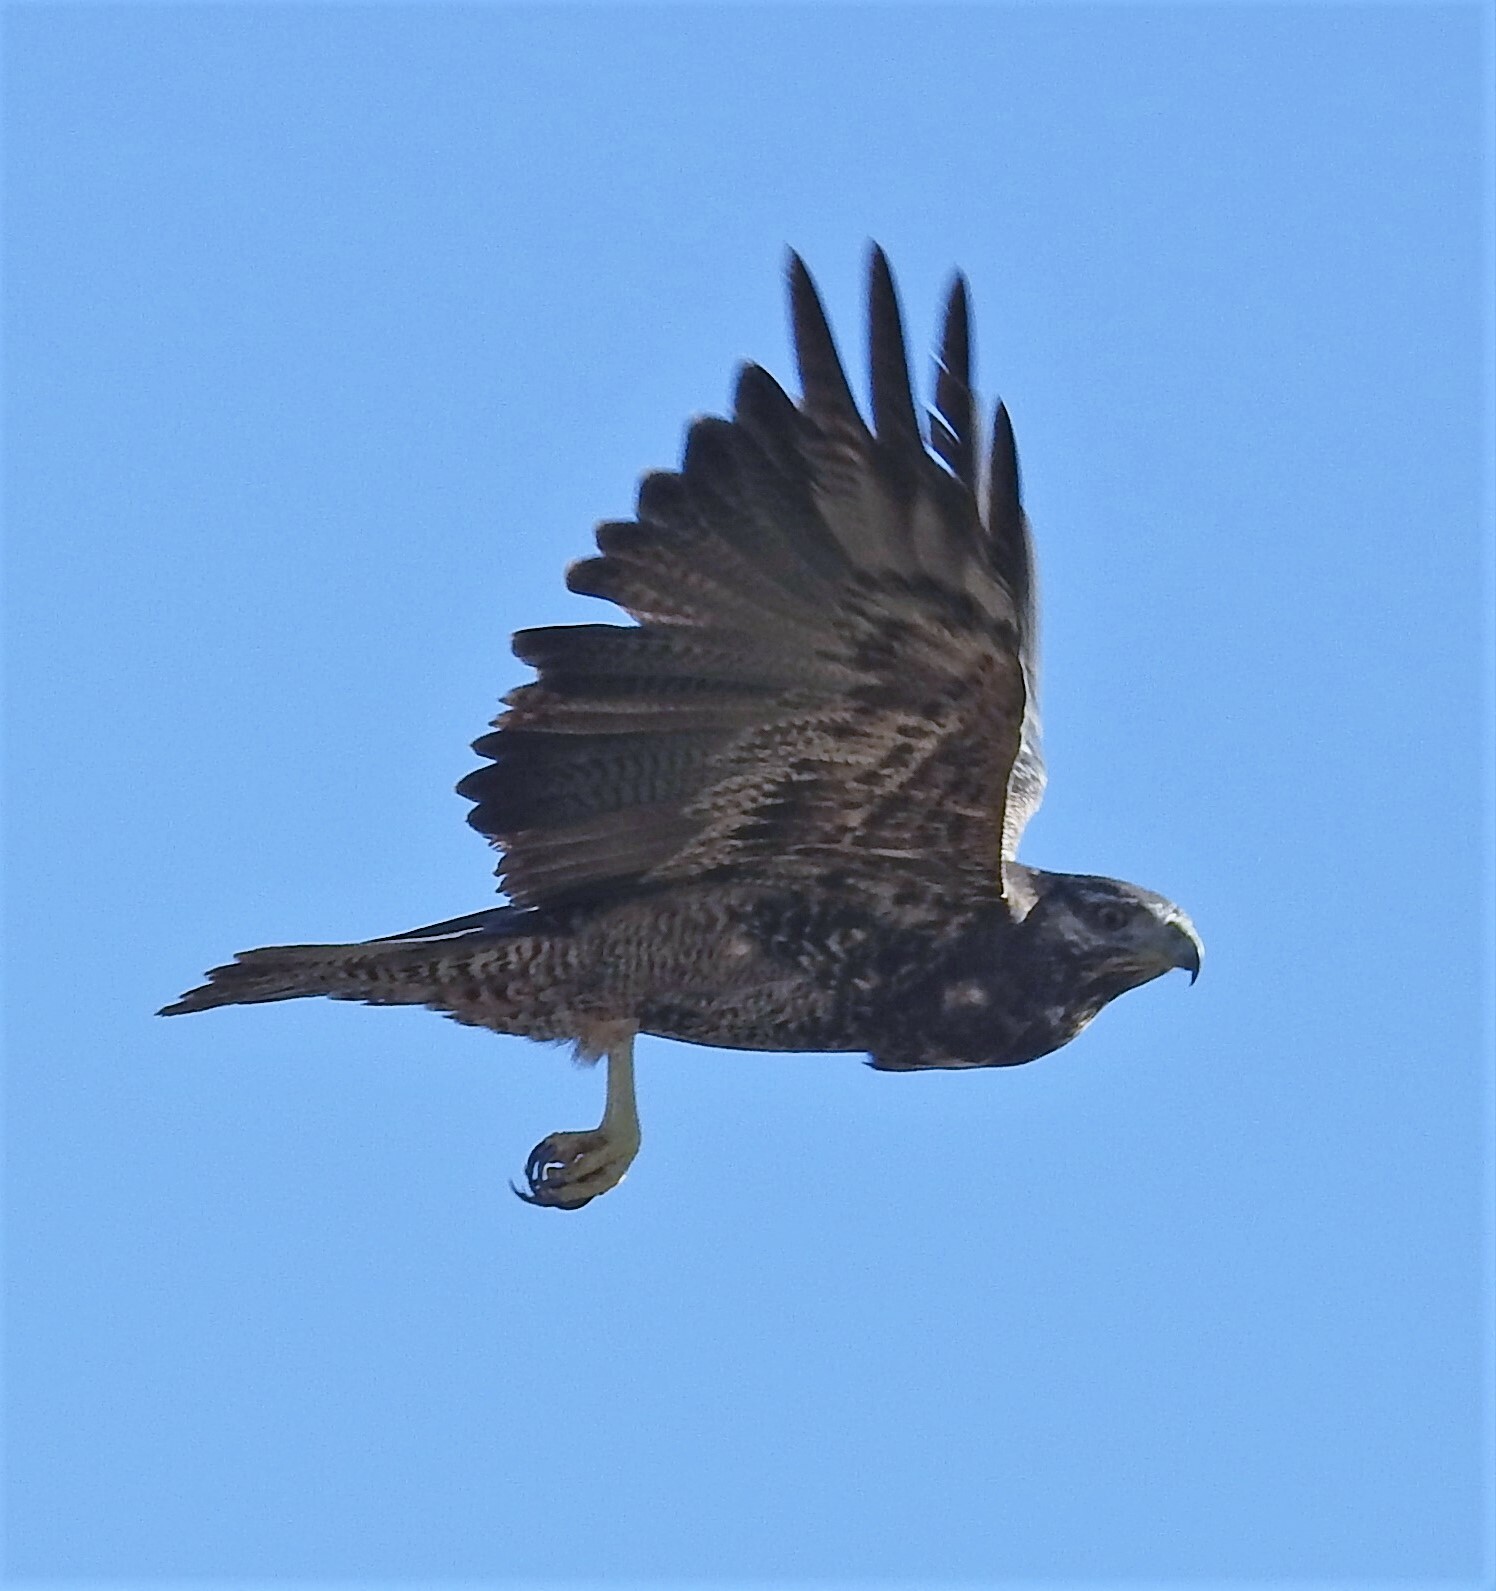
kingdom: Animalia
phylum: Chordata
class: Aves
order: Accipitriformes
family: Accipitridae
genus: Geranoaetus
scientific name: Geranoaetus melanoleucus
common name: Black-chested buzzard-eagle
